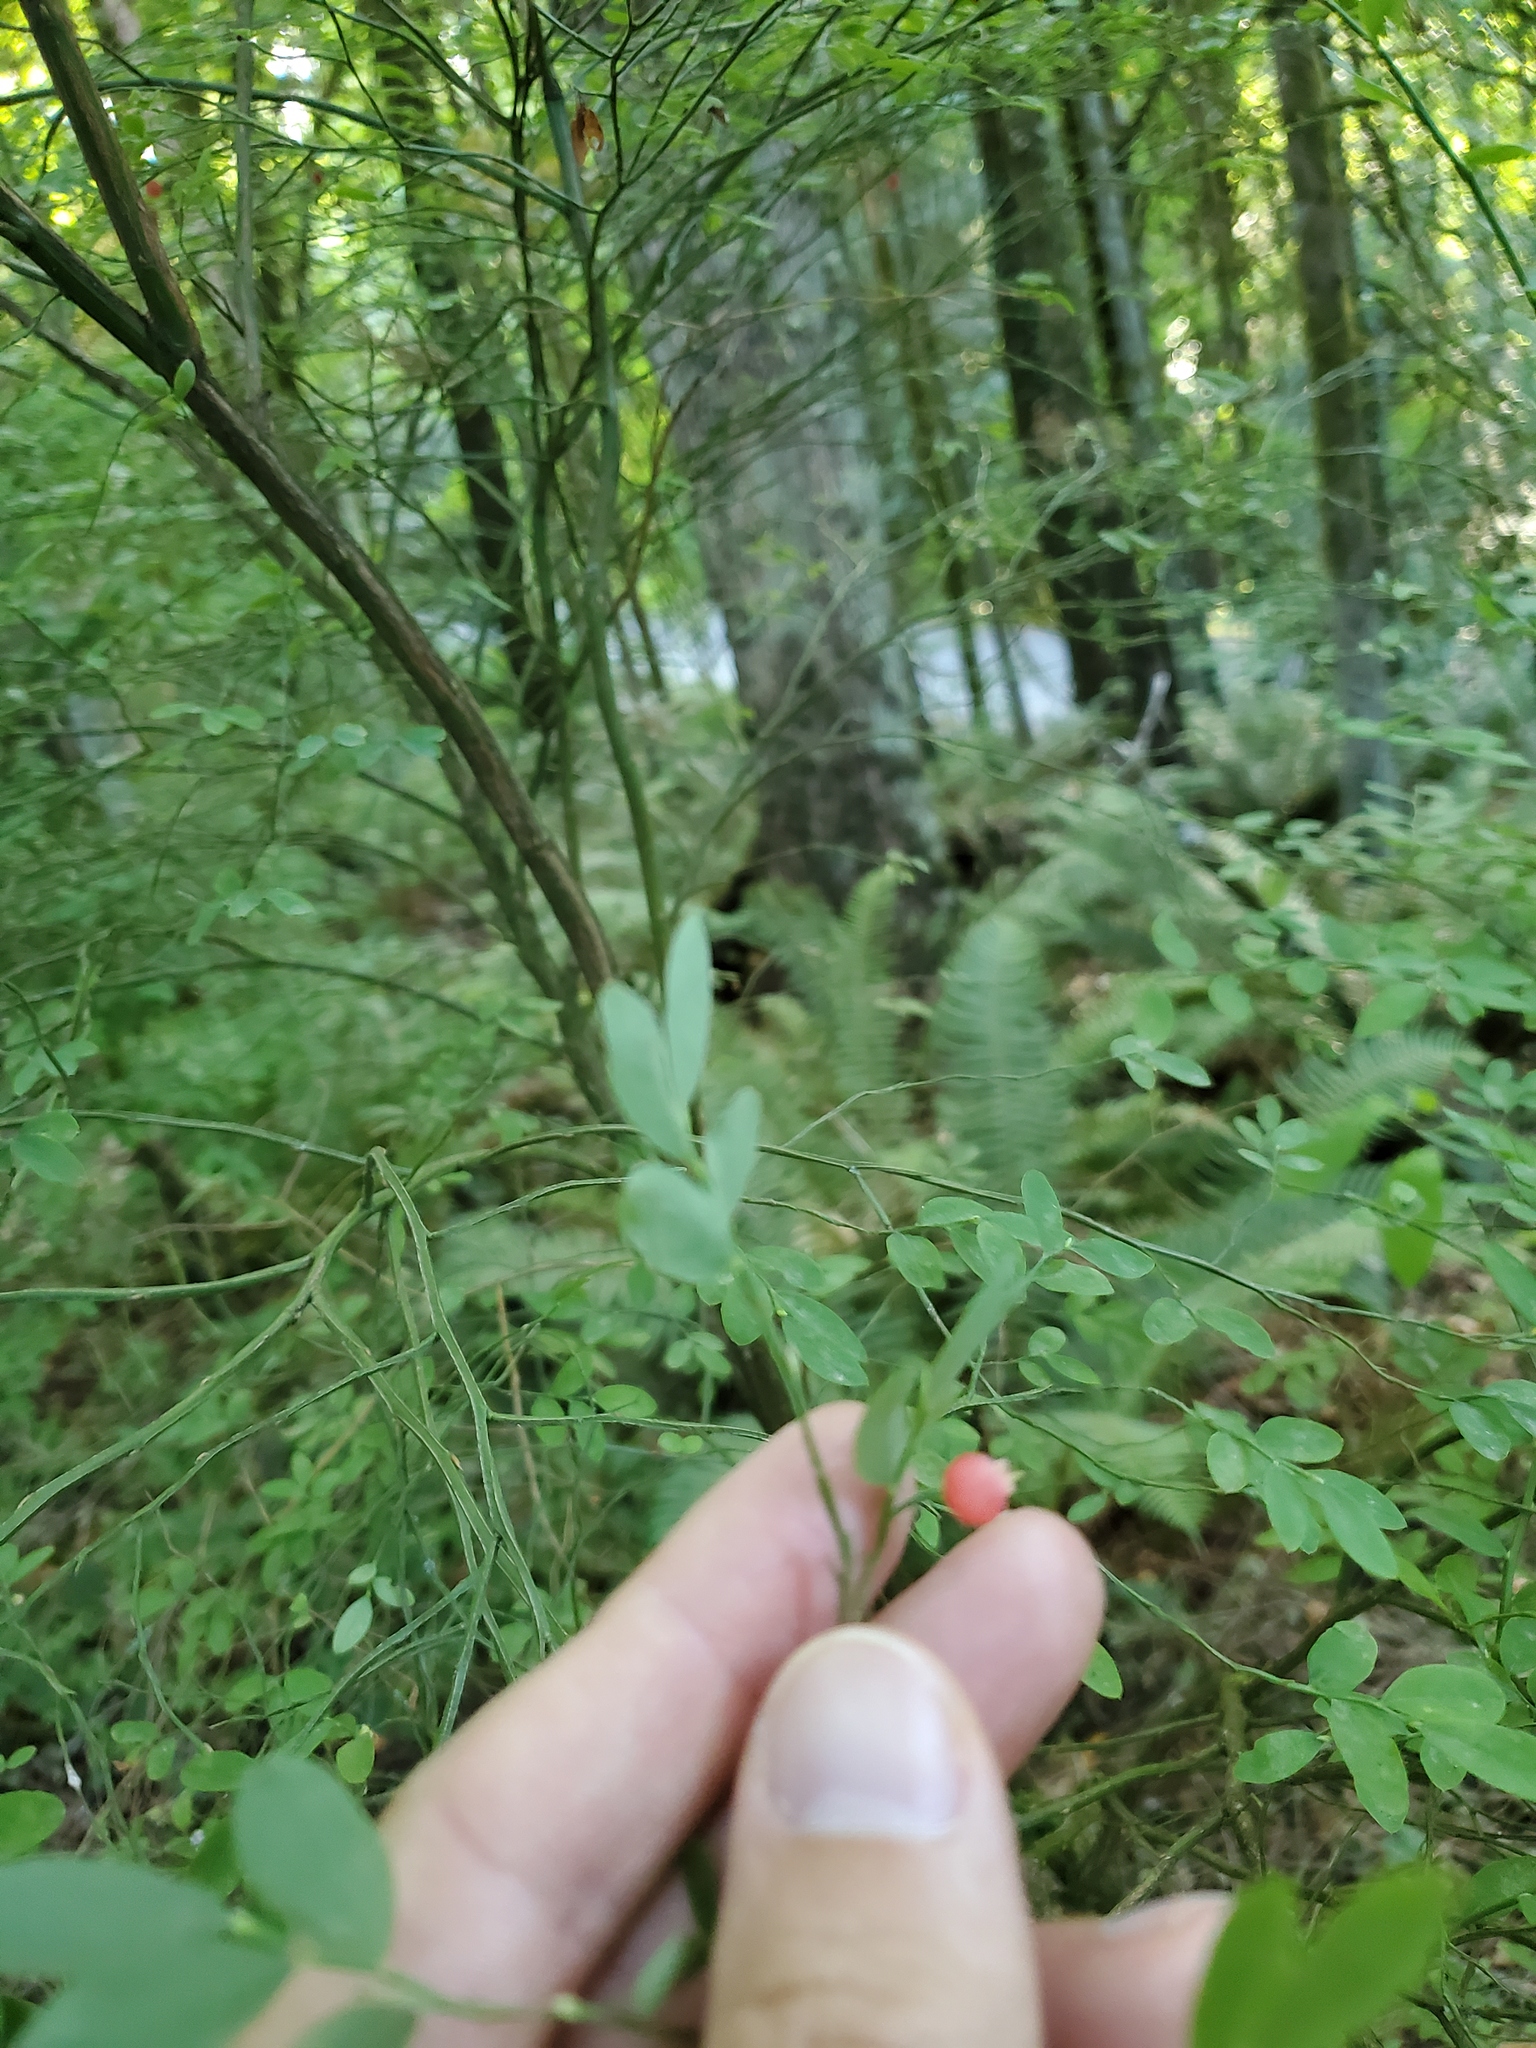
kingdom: Plantae
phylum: Tracheophyta
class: Magnoliopsida
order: Ericales
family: Ericaceae
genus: Vaccinium
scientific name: Vaccinium parvifolium
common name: Red-huckleberry
